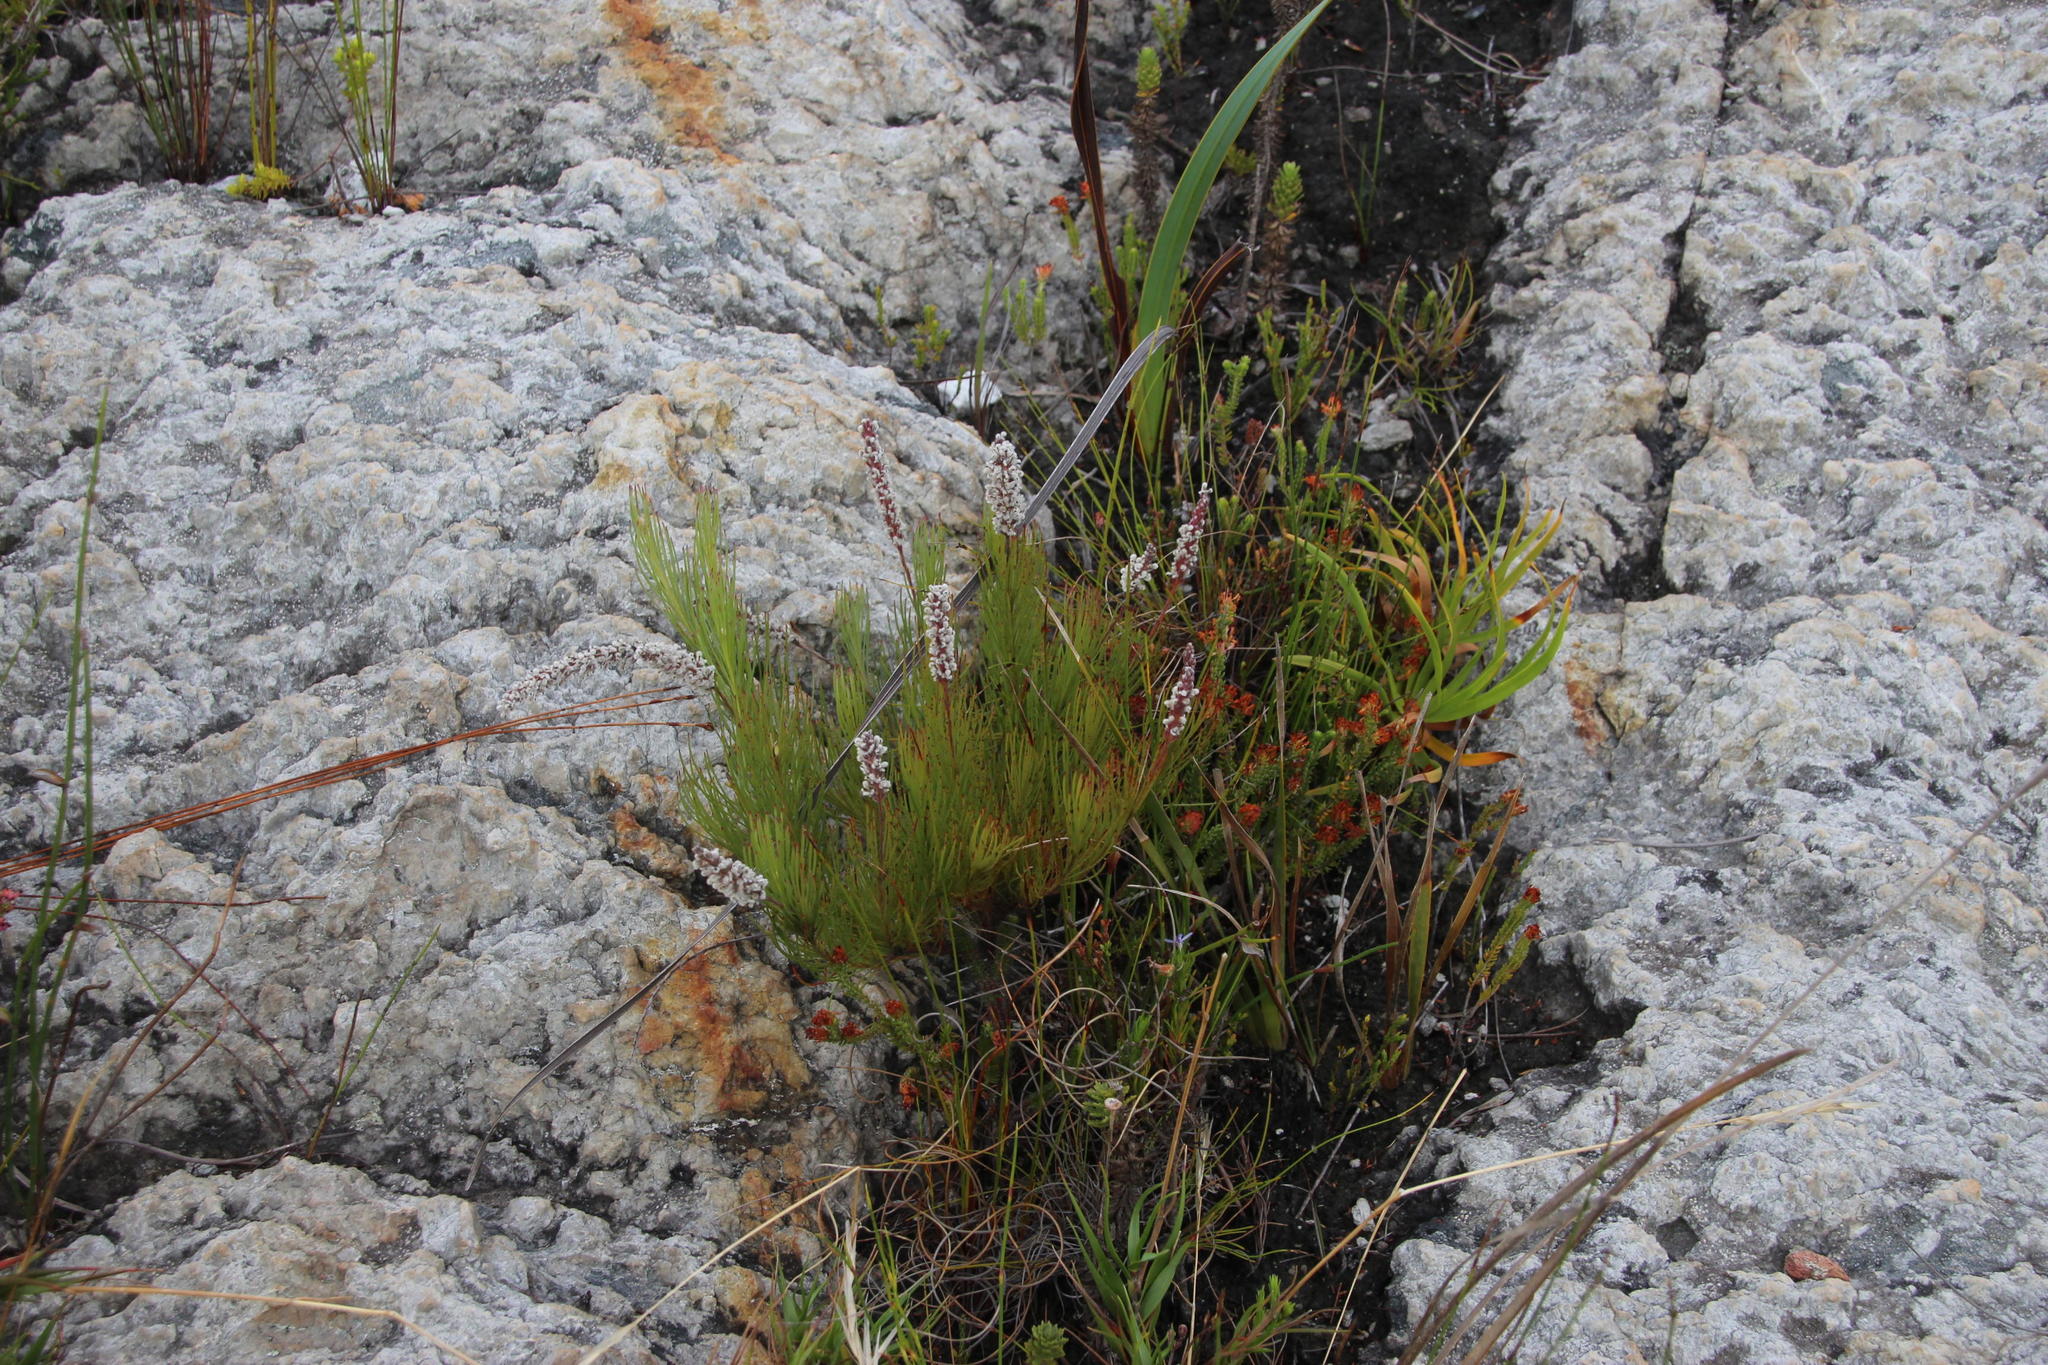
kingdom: Plantae
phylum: Tracheophyta
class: Magnoliopsida
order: Proteales
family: Proteaceae
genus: Spatalla
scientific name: Spatalla mollis
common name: Woolly spoon
